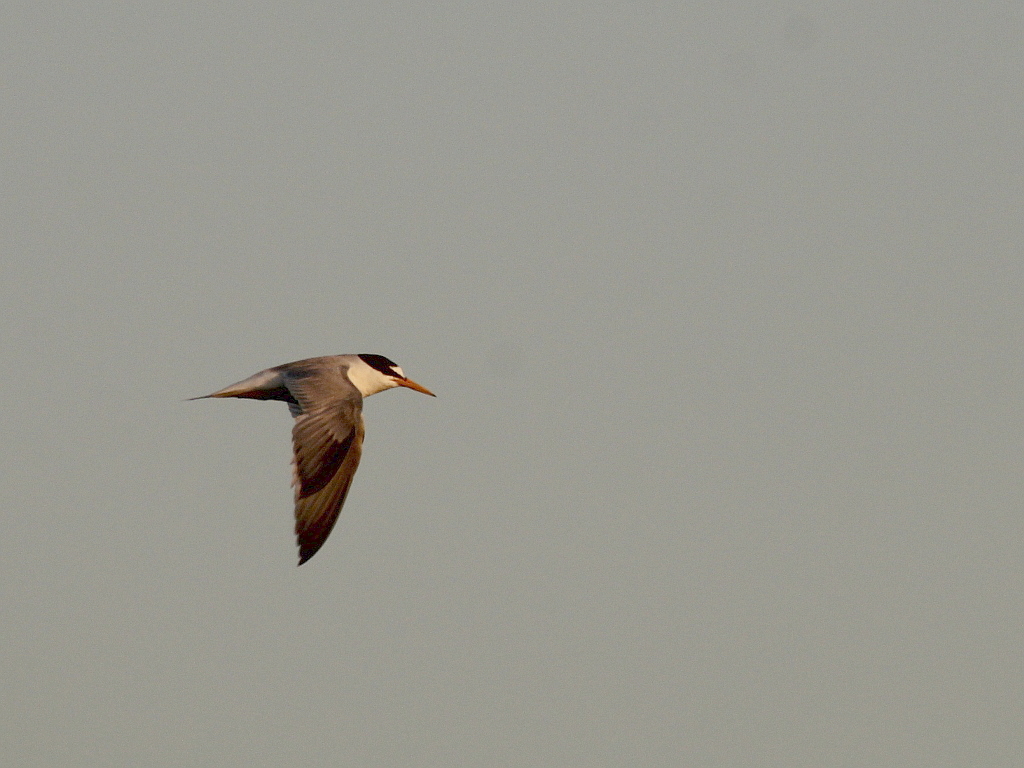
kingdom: Animalia
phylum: Chordata
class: Aves
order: Charadriiformes
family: Laridae
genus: Sternula
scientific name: Sternula albifrons
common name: Little tern
